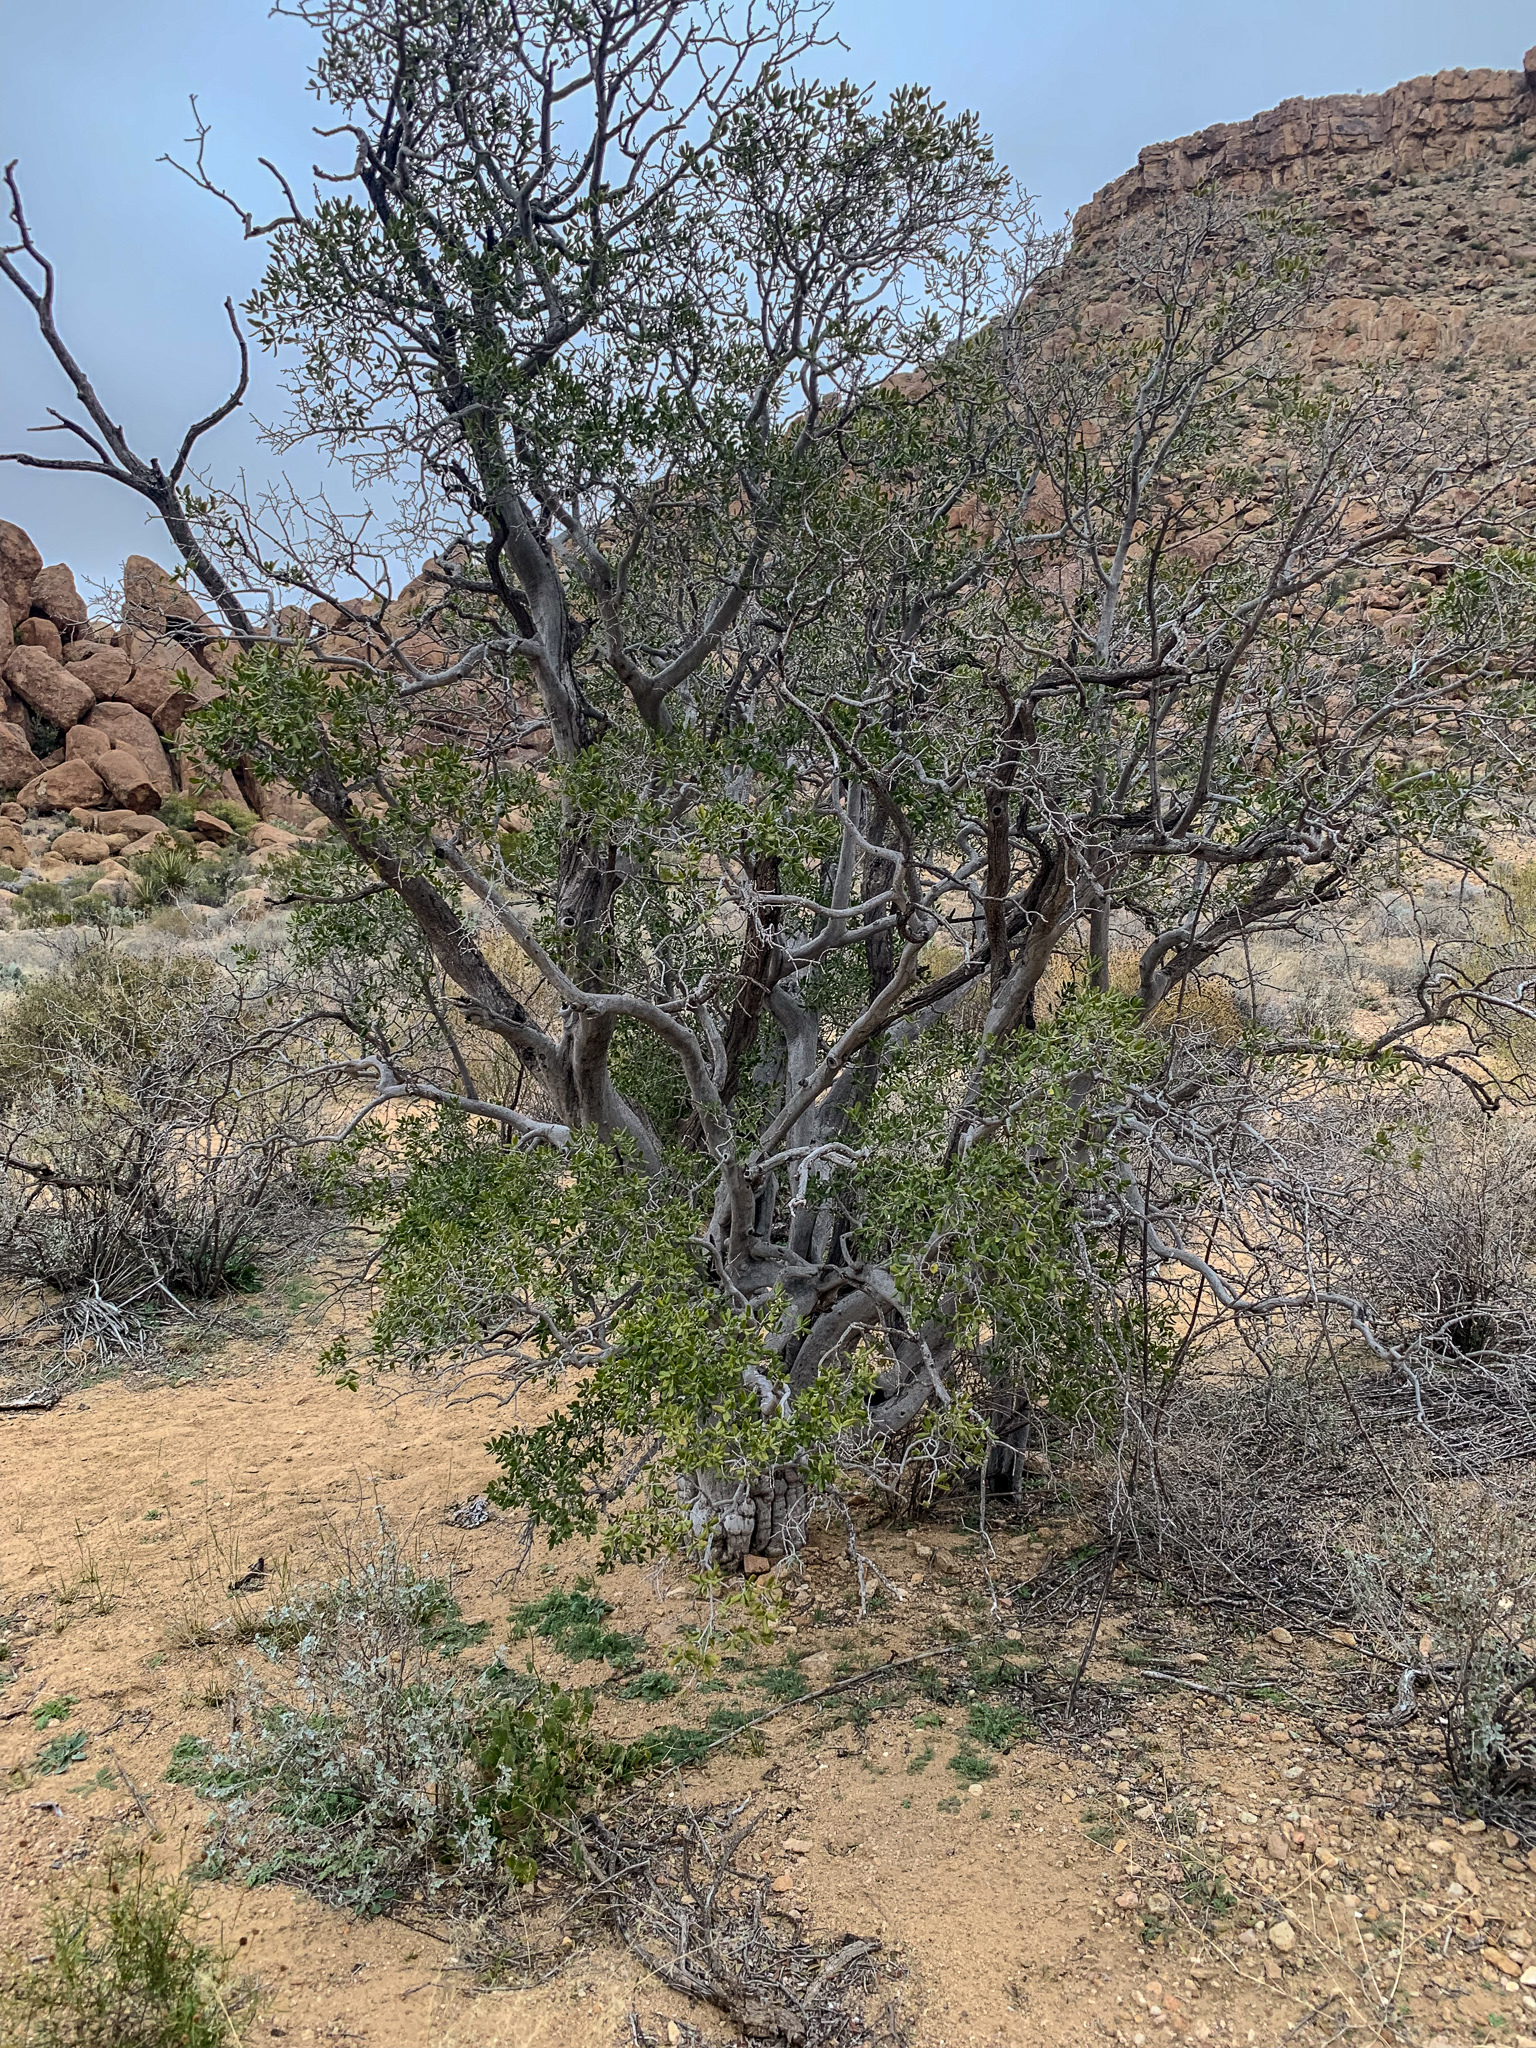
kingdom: Plantae
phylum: Tracheophyta
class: Magnoliopsida
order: Ericales
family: Ebenaceae
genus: Diospyros
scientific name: Diospyros texana
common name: Texas persimmon
